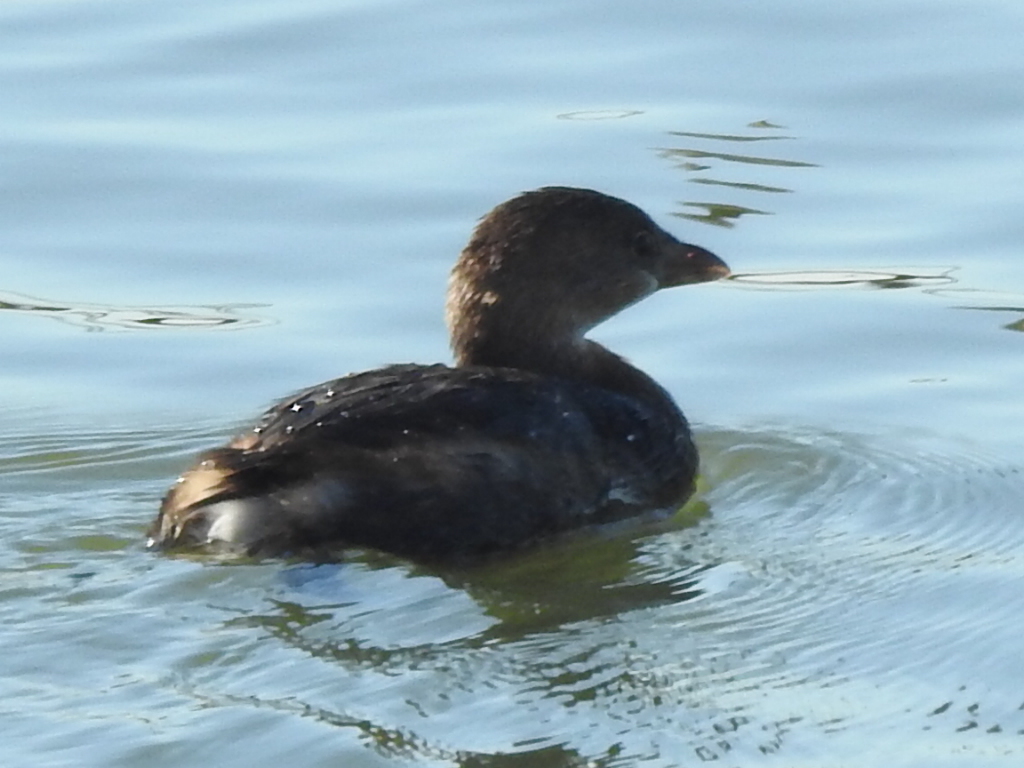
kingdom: Animalia
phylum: Chordata
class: Aves
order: Podicipediformes
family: Podicipedidae
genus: Podilymbus
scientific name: Podilymbus podiceps
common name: Pied-billed grebe
